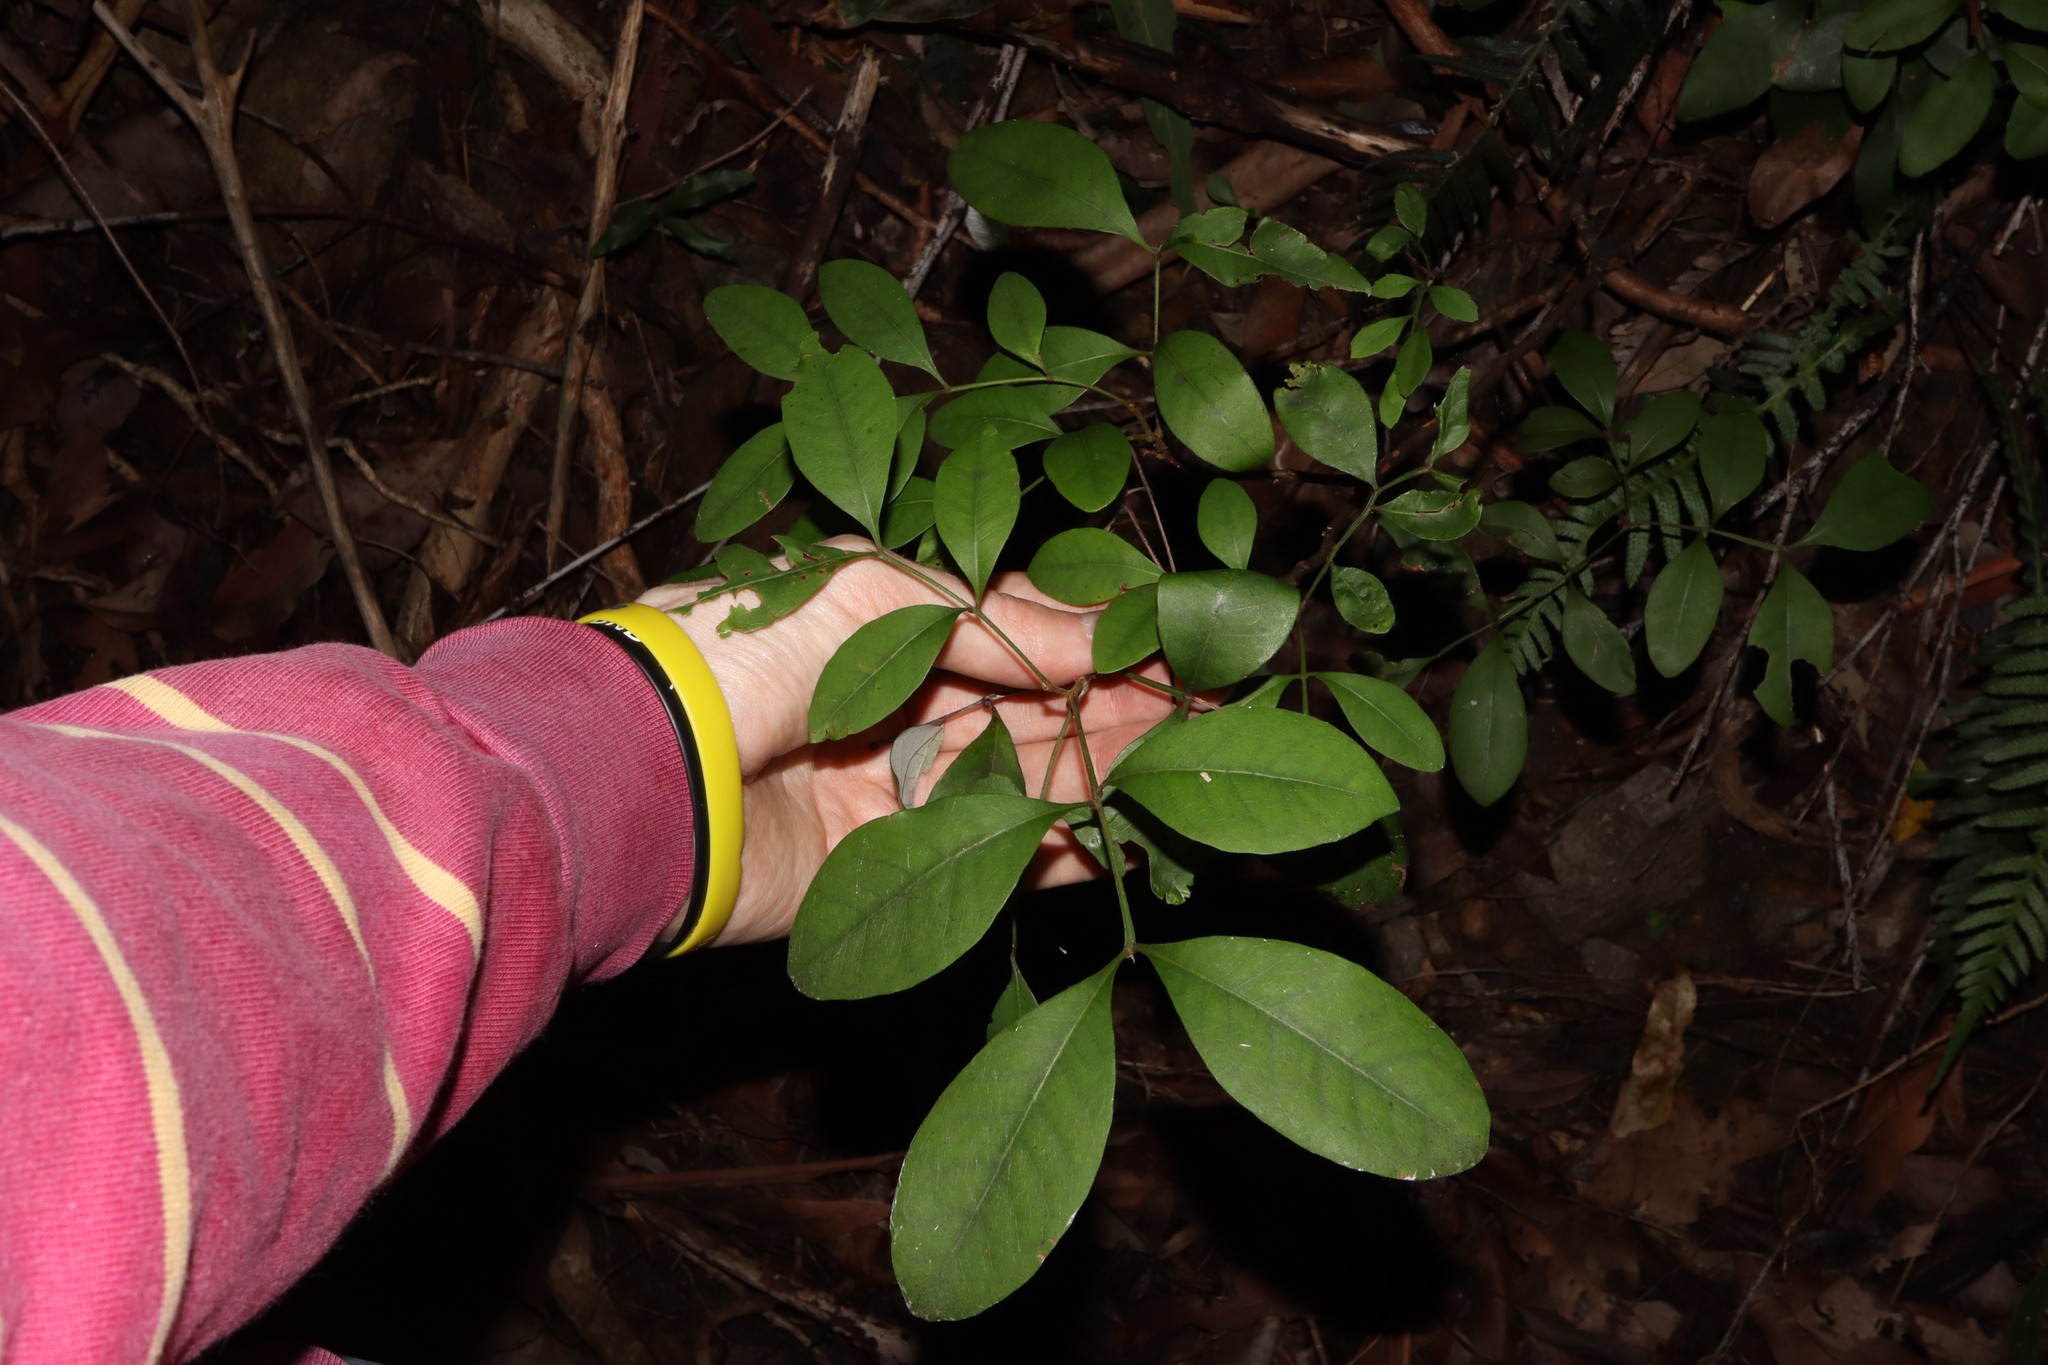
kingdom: Plantae
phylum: Tracheophyta
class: Magnoliopsida
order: Sapindales
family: Sapindaceae
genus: Guioa
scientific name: Guioa semiglauca
